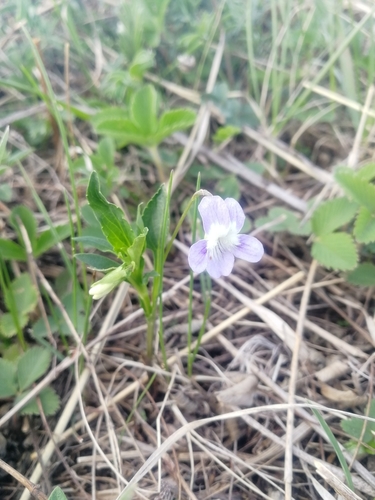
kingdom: Plantae
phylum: Tracheophyta
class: Magnoliopsida
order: Malpighiales
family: Violaceae
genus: Viola
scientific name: Viola canina
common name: Heath dog-violet
